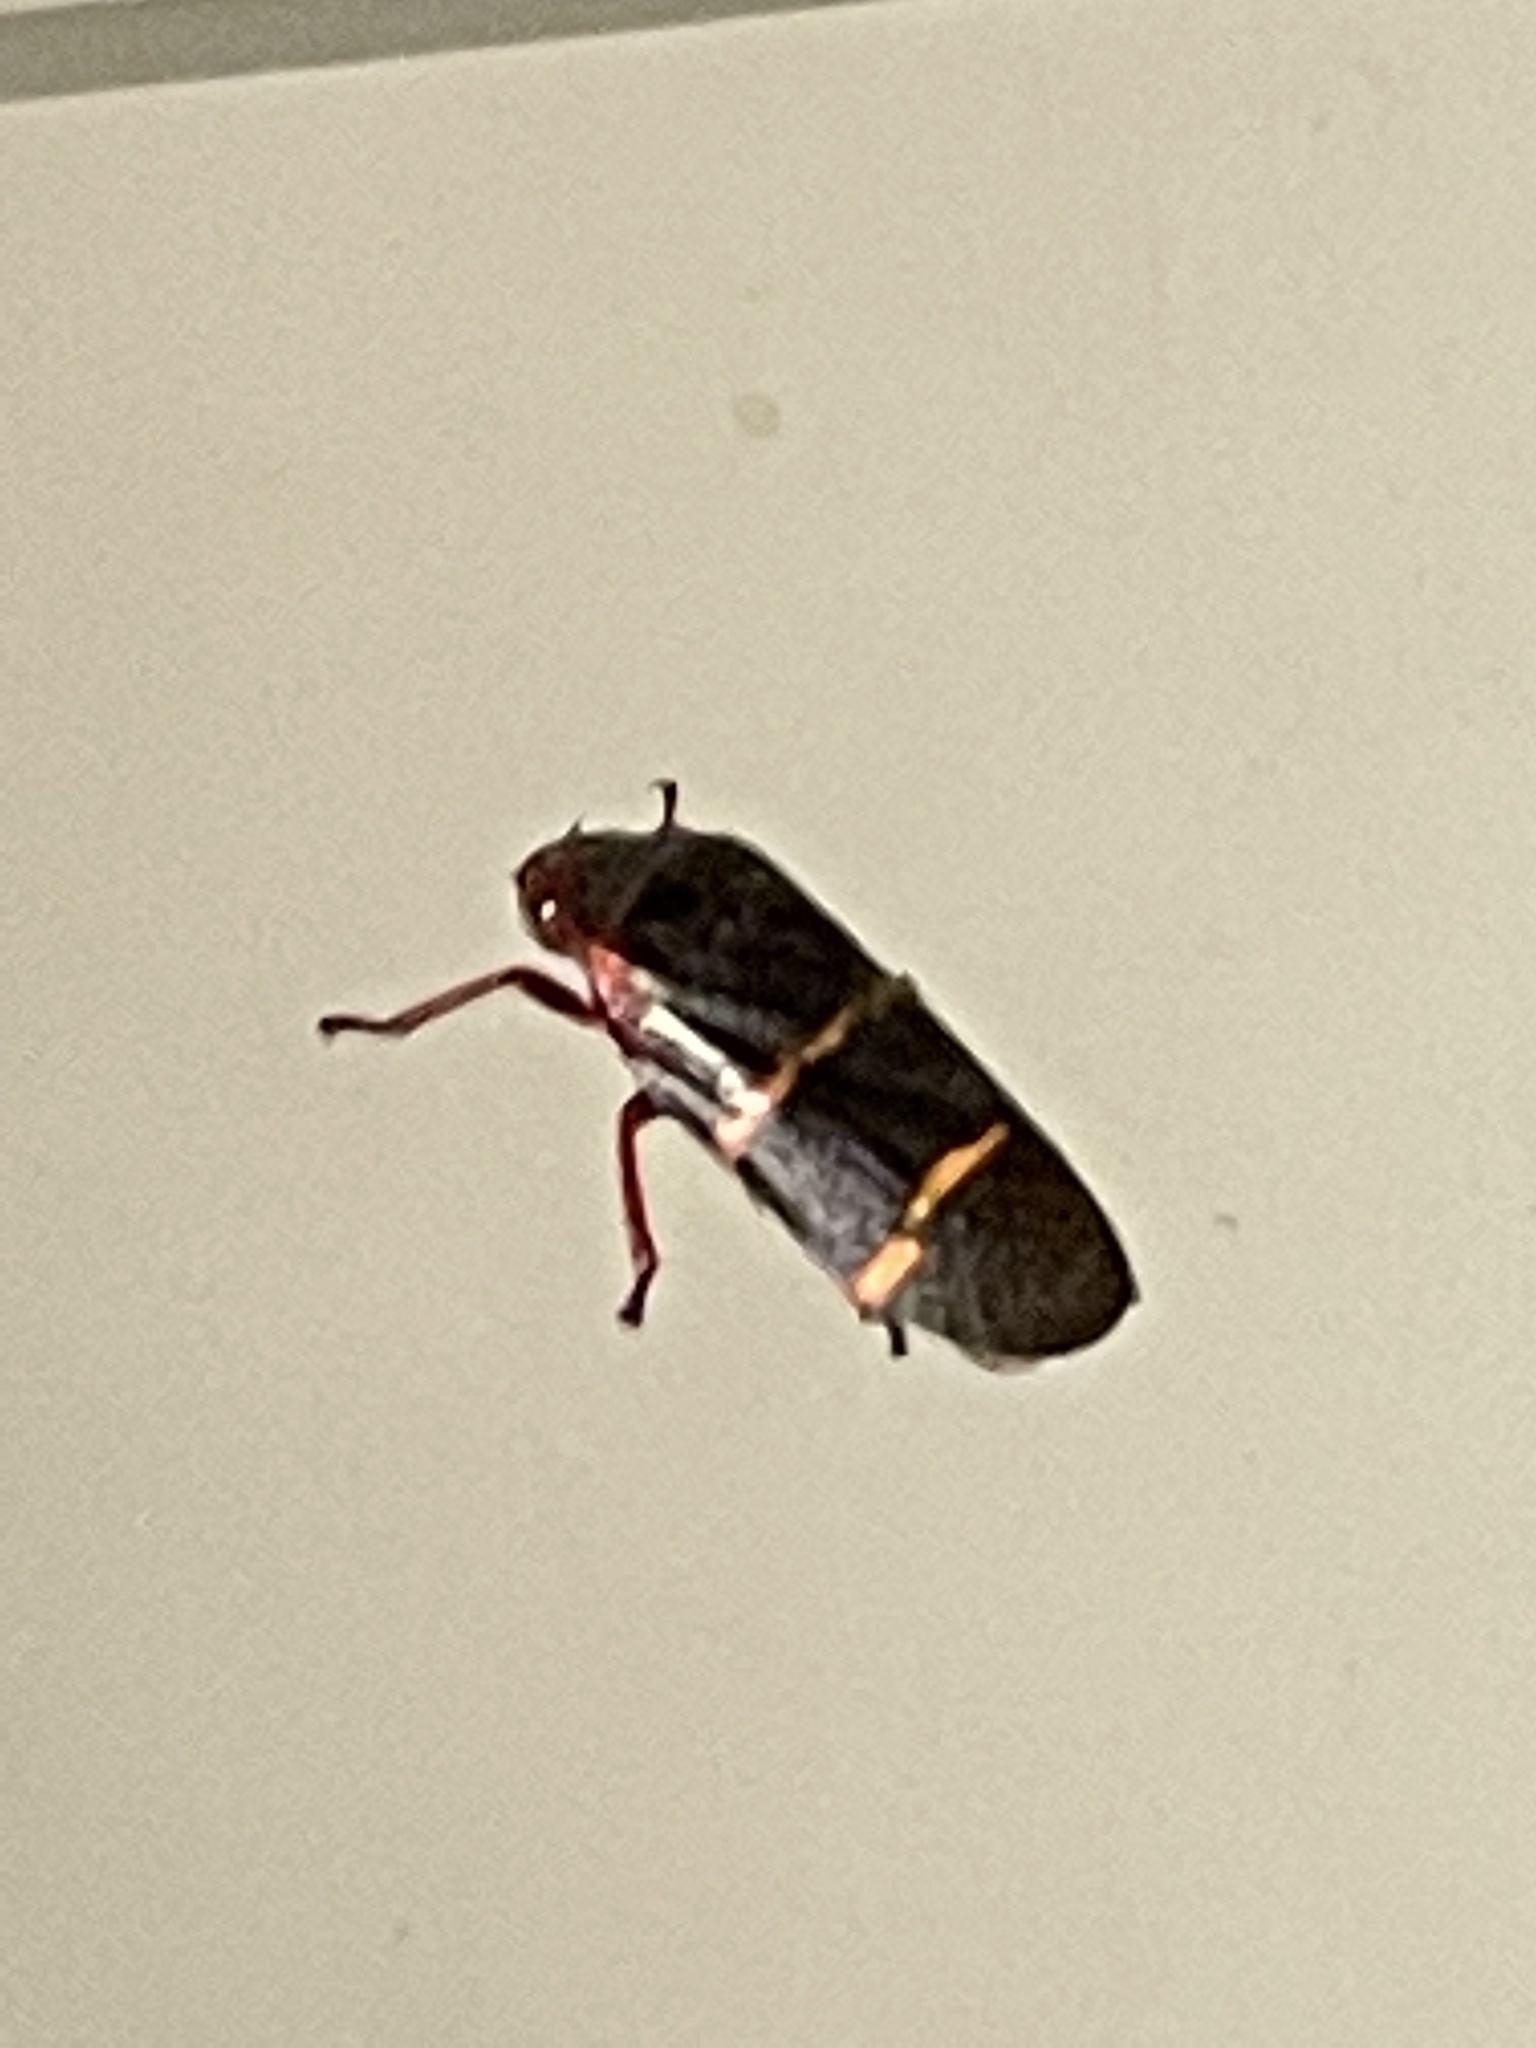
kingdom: Animalia
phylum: Arthropoda
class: Insecta
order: Hemiptera
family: Cercopidae
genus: Prosapia
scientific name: Prosapia bicincta
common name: Twolined spittlebug
